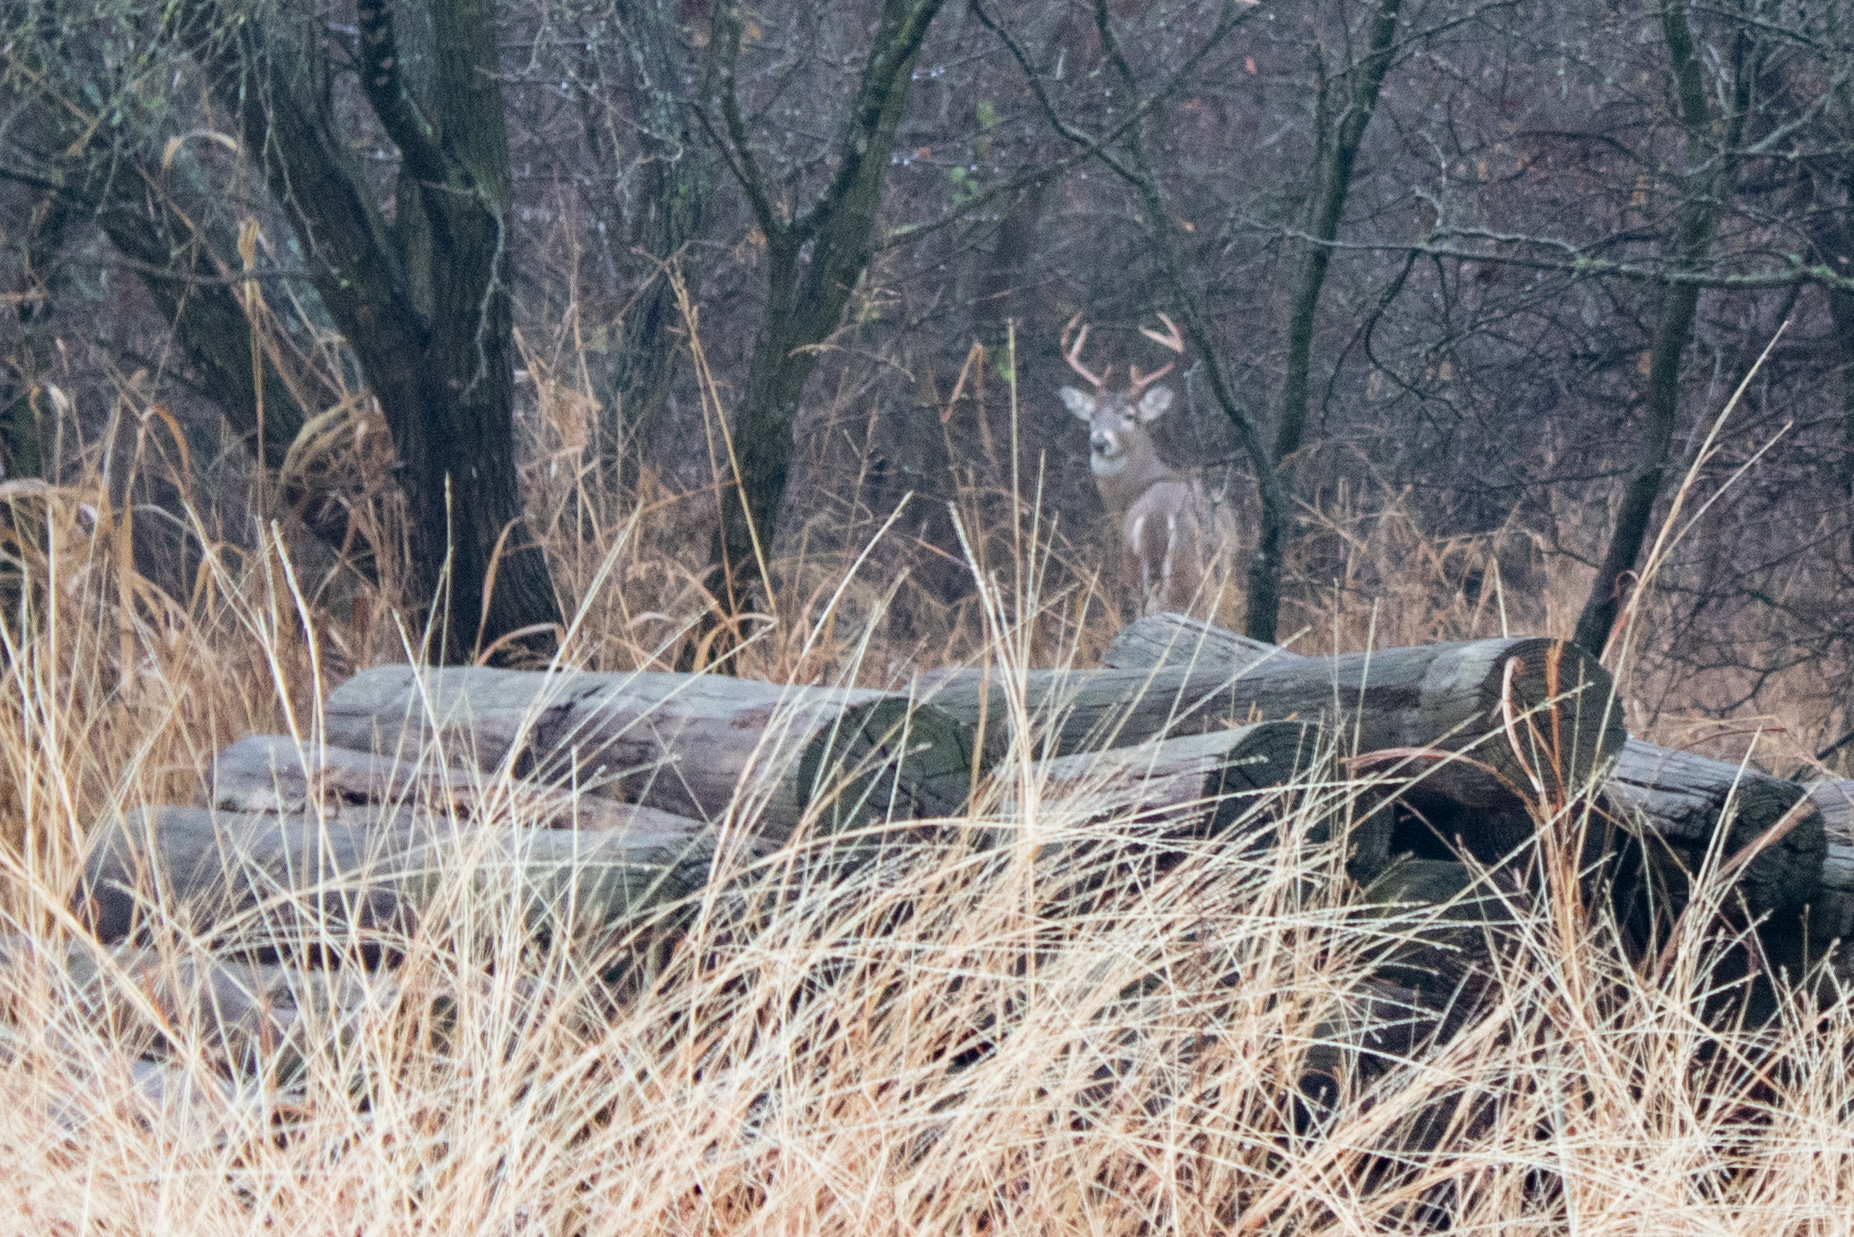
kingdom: Animalia
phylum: Chordata
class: Mammalia
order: Artiodactyla
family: Cervidae
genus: Odocoileus
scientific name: Odocoileus virginianus
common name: White-tailed deer
